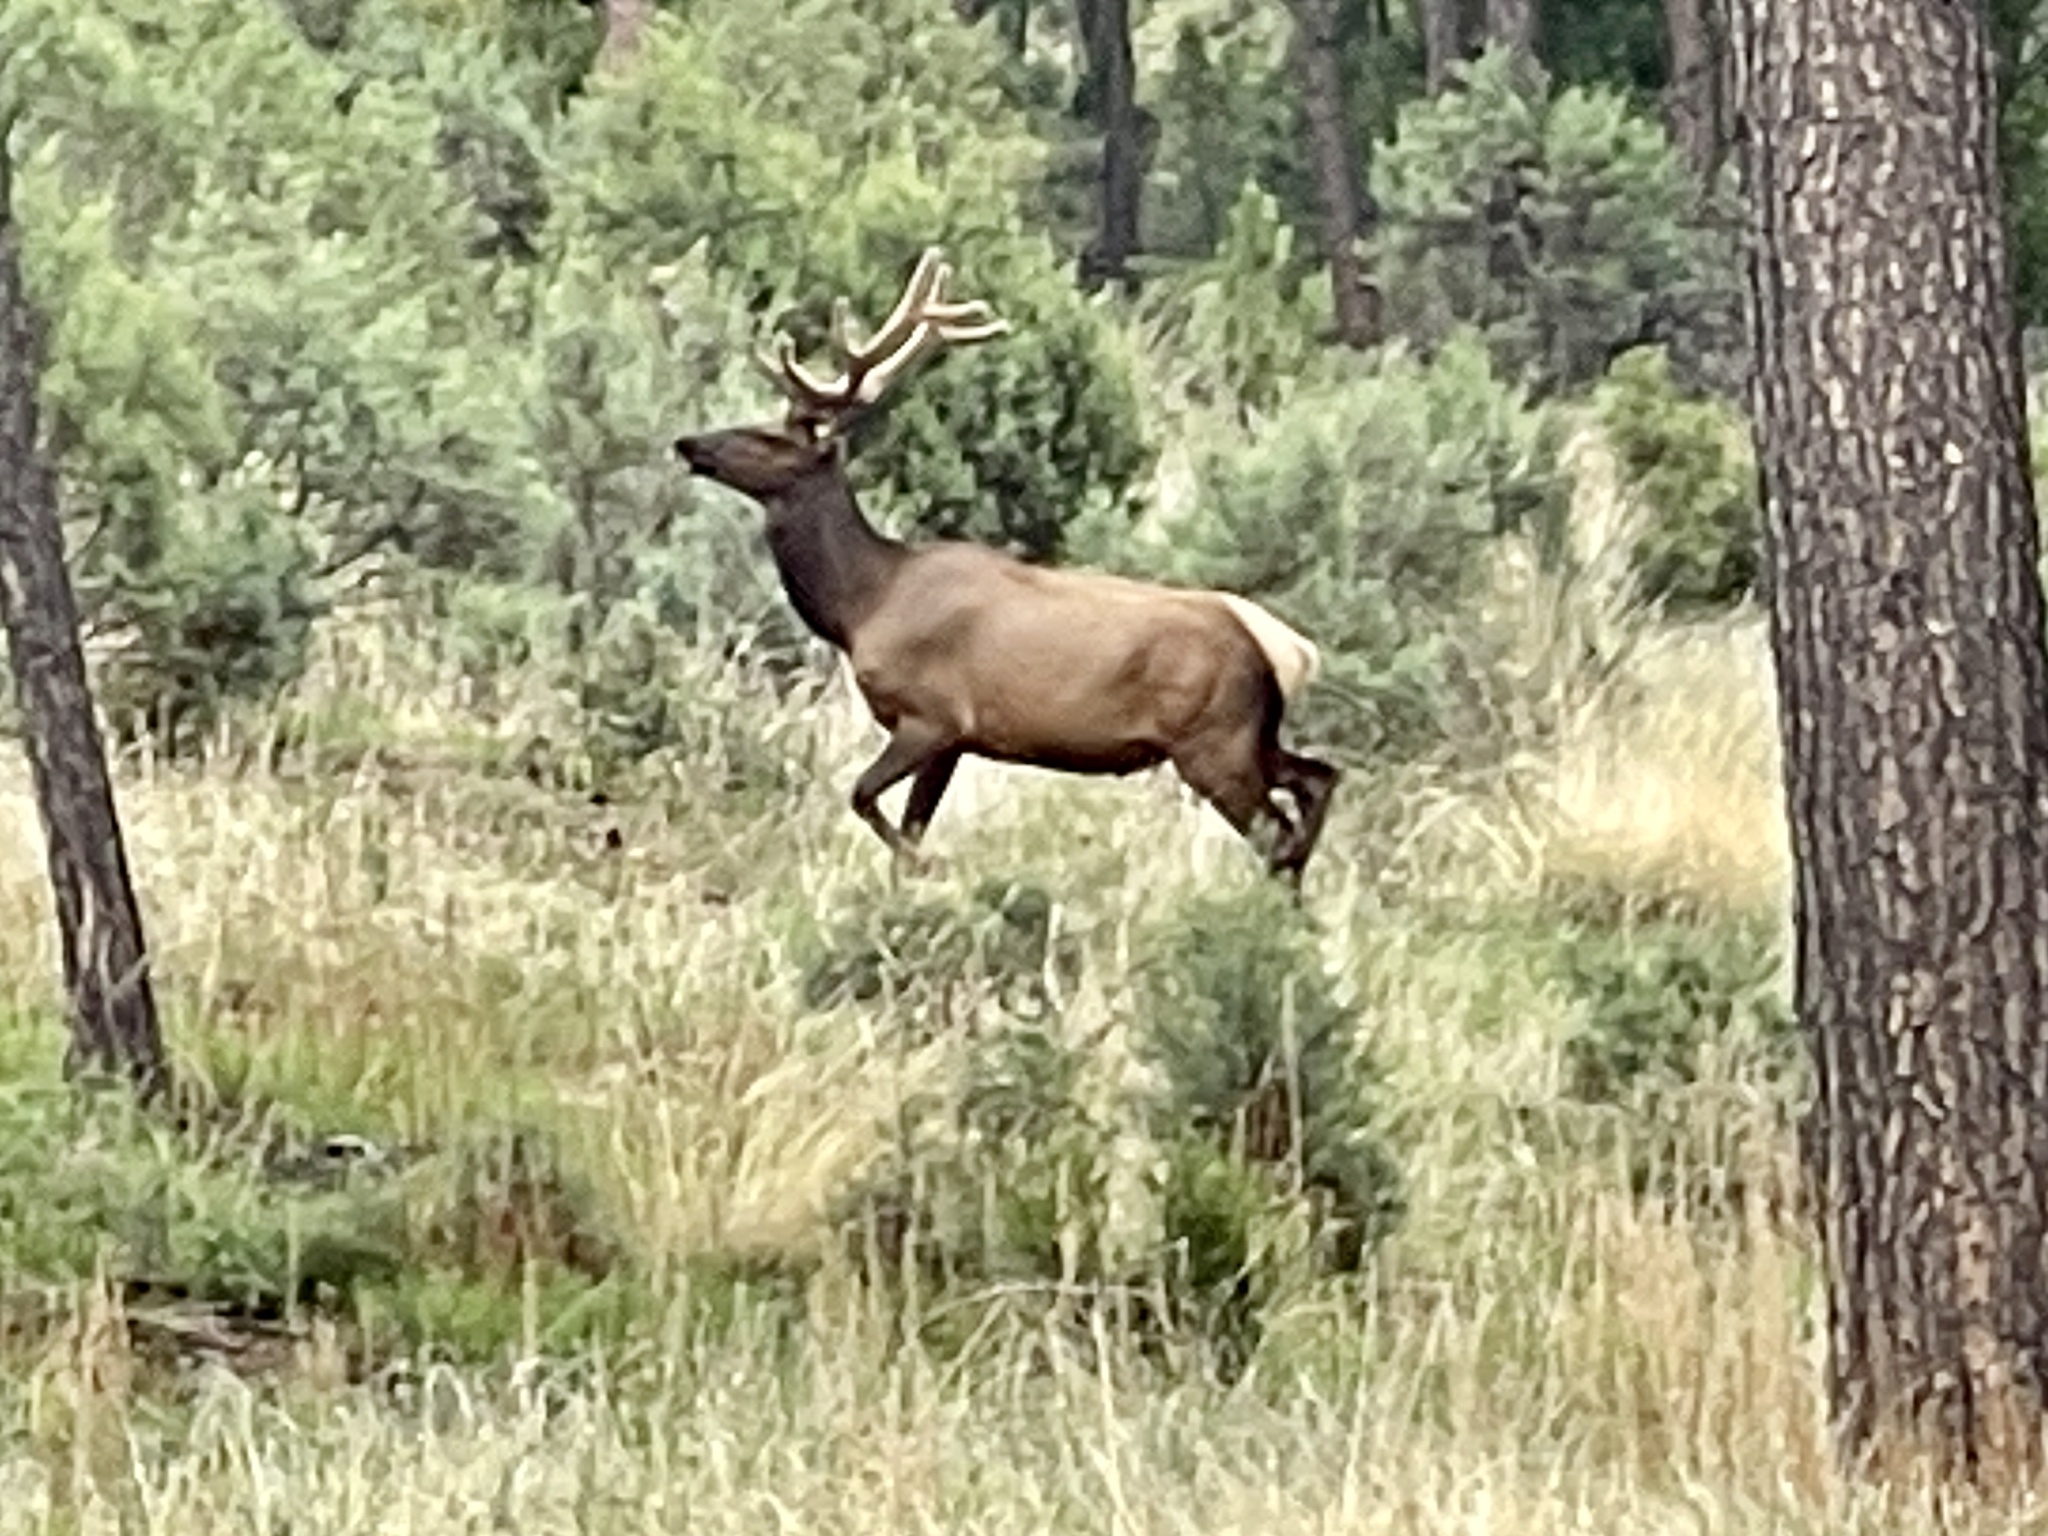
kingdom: Animalia
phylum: Chordata
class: Mammalia
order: Artiodactyla
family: Cervidae
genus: Cervus
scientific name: Cervus elaphus
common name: Red deer
